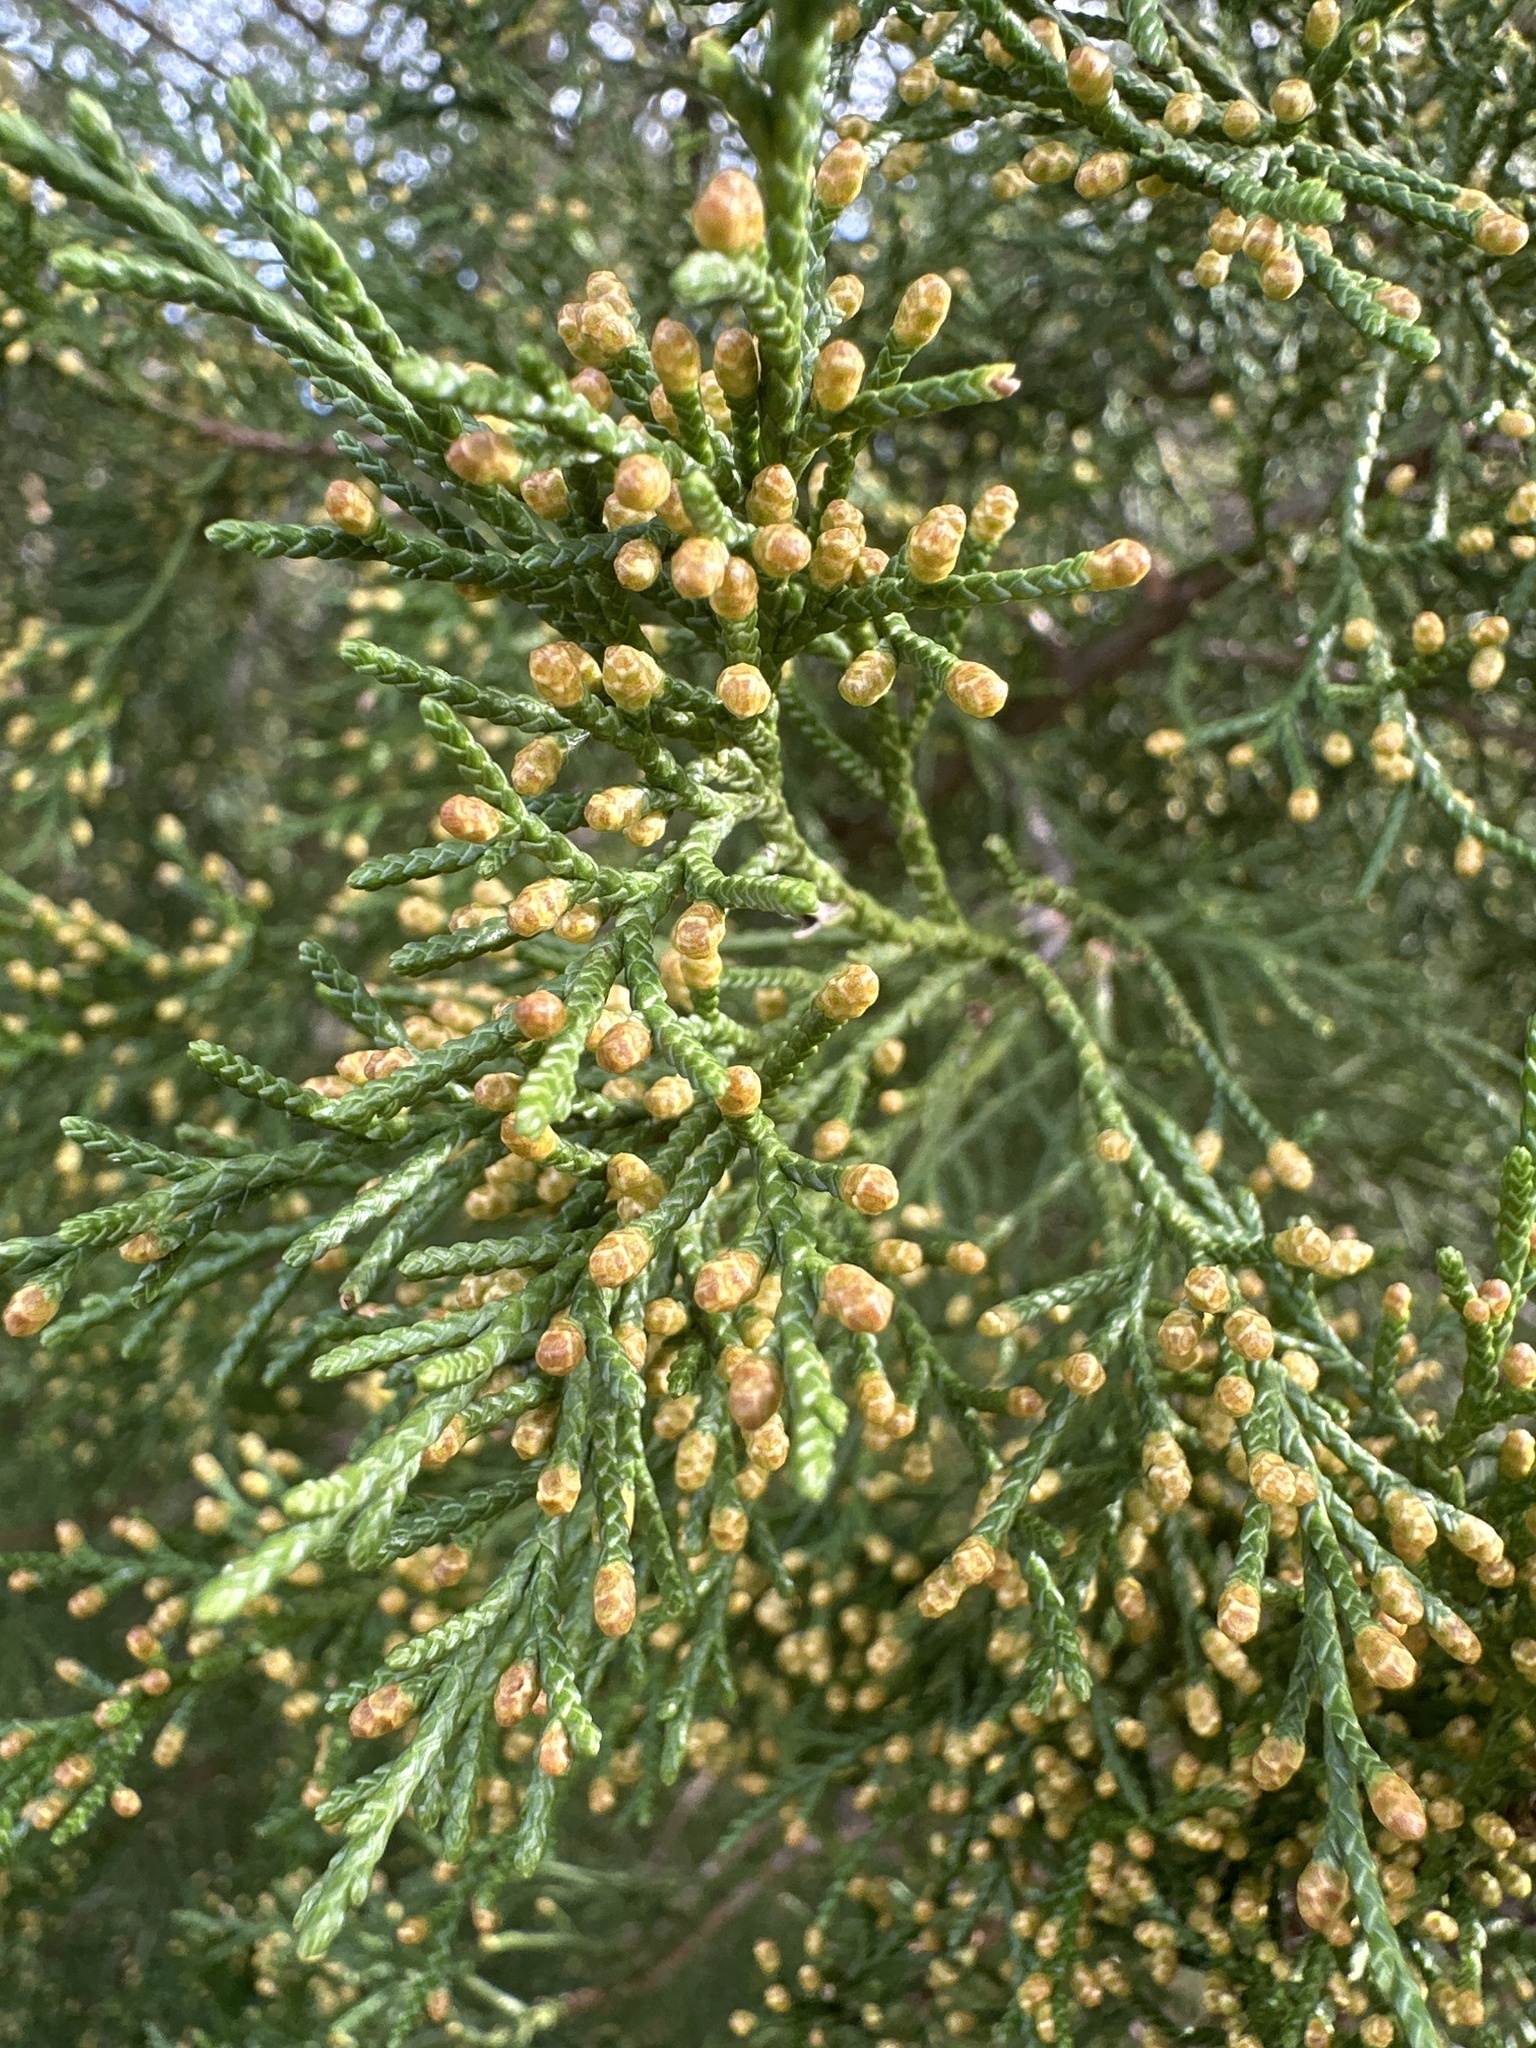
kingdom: Plantae
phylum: Tracheophyta
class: Pinopsida
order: Pinales
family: Cupressaceae
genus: Juniperus
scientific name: Juniperus virginiana
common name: Red juniper
